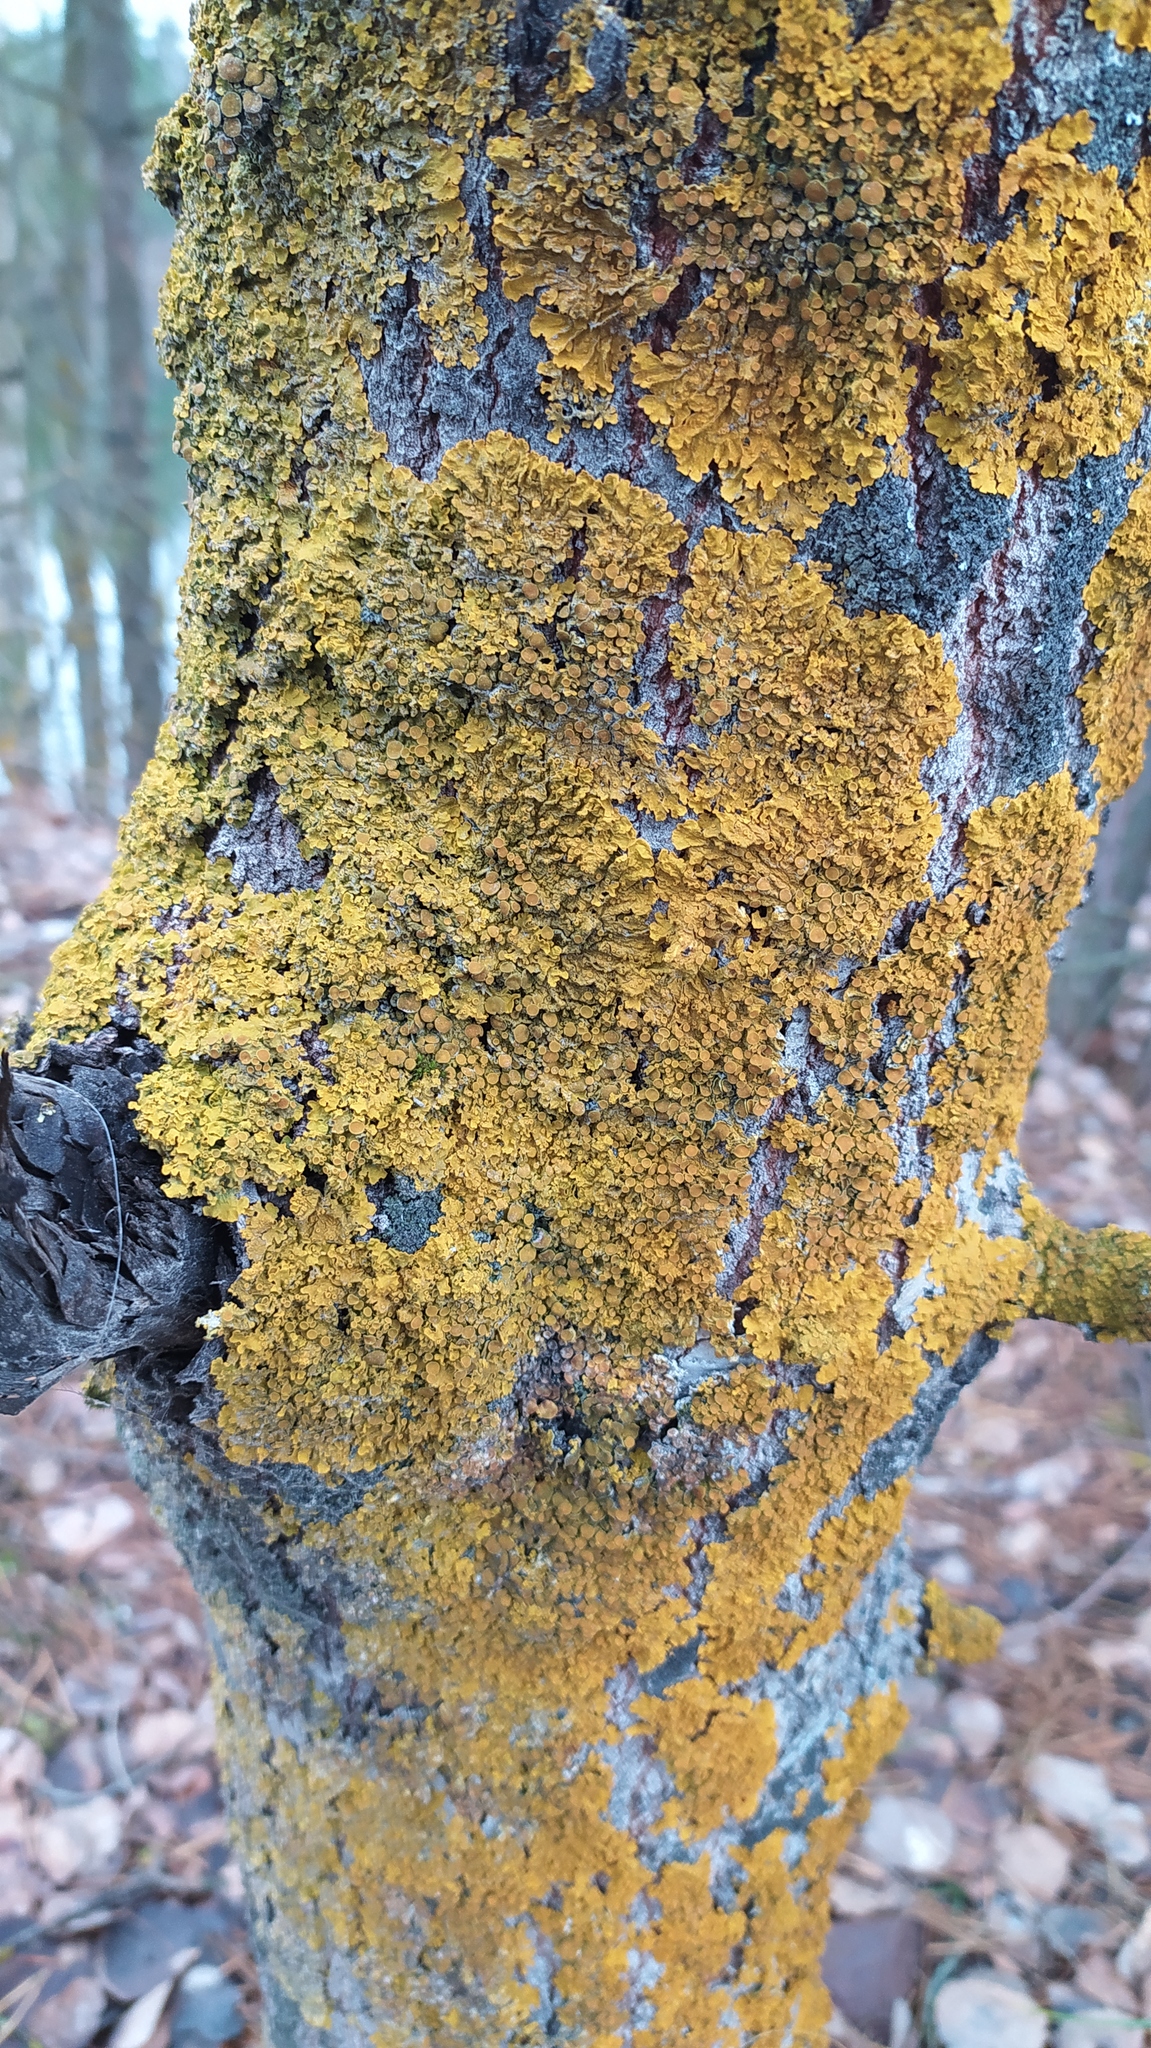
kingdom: Fungi
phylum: Ascomycota
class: Lecanoromycetes
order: Teloschistales
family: Teloschistaceae
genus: Xanthoria
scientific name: Xanthoria parietina
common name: Common orange lichen
